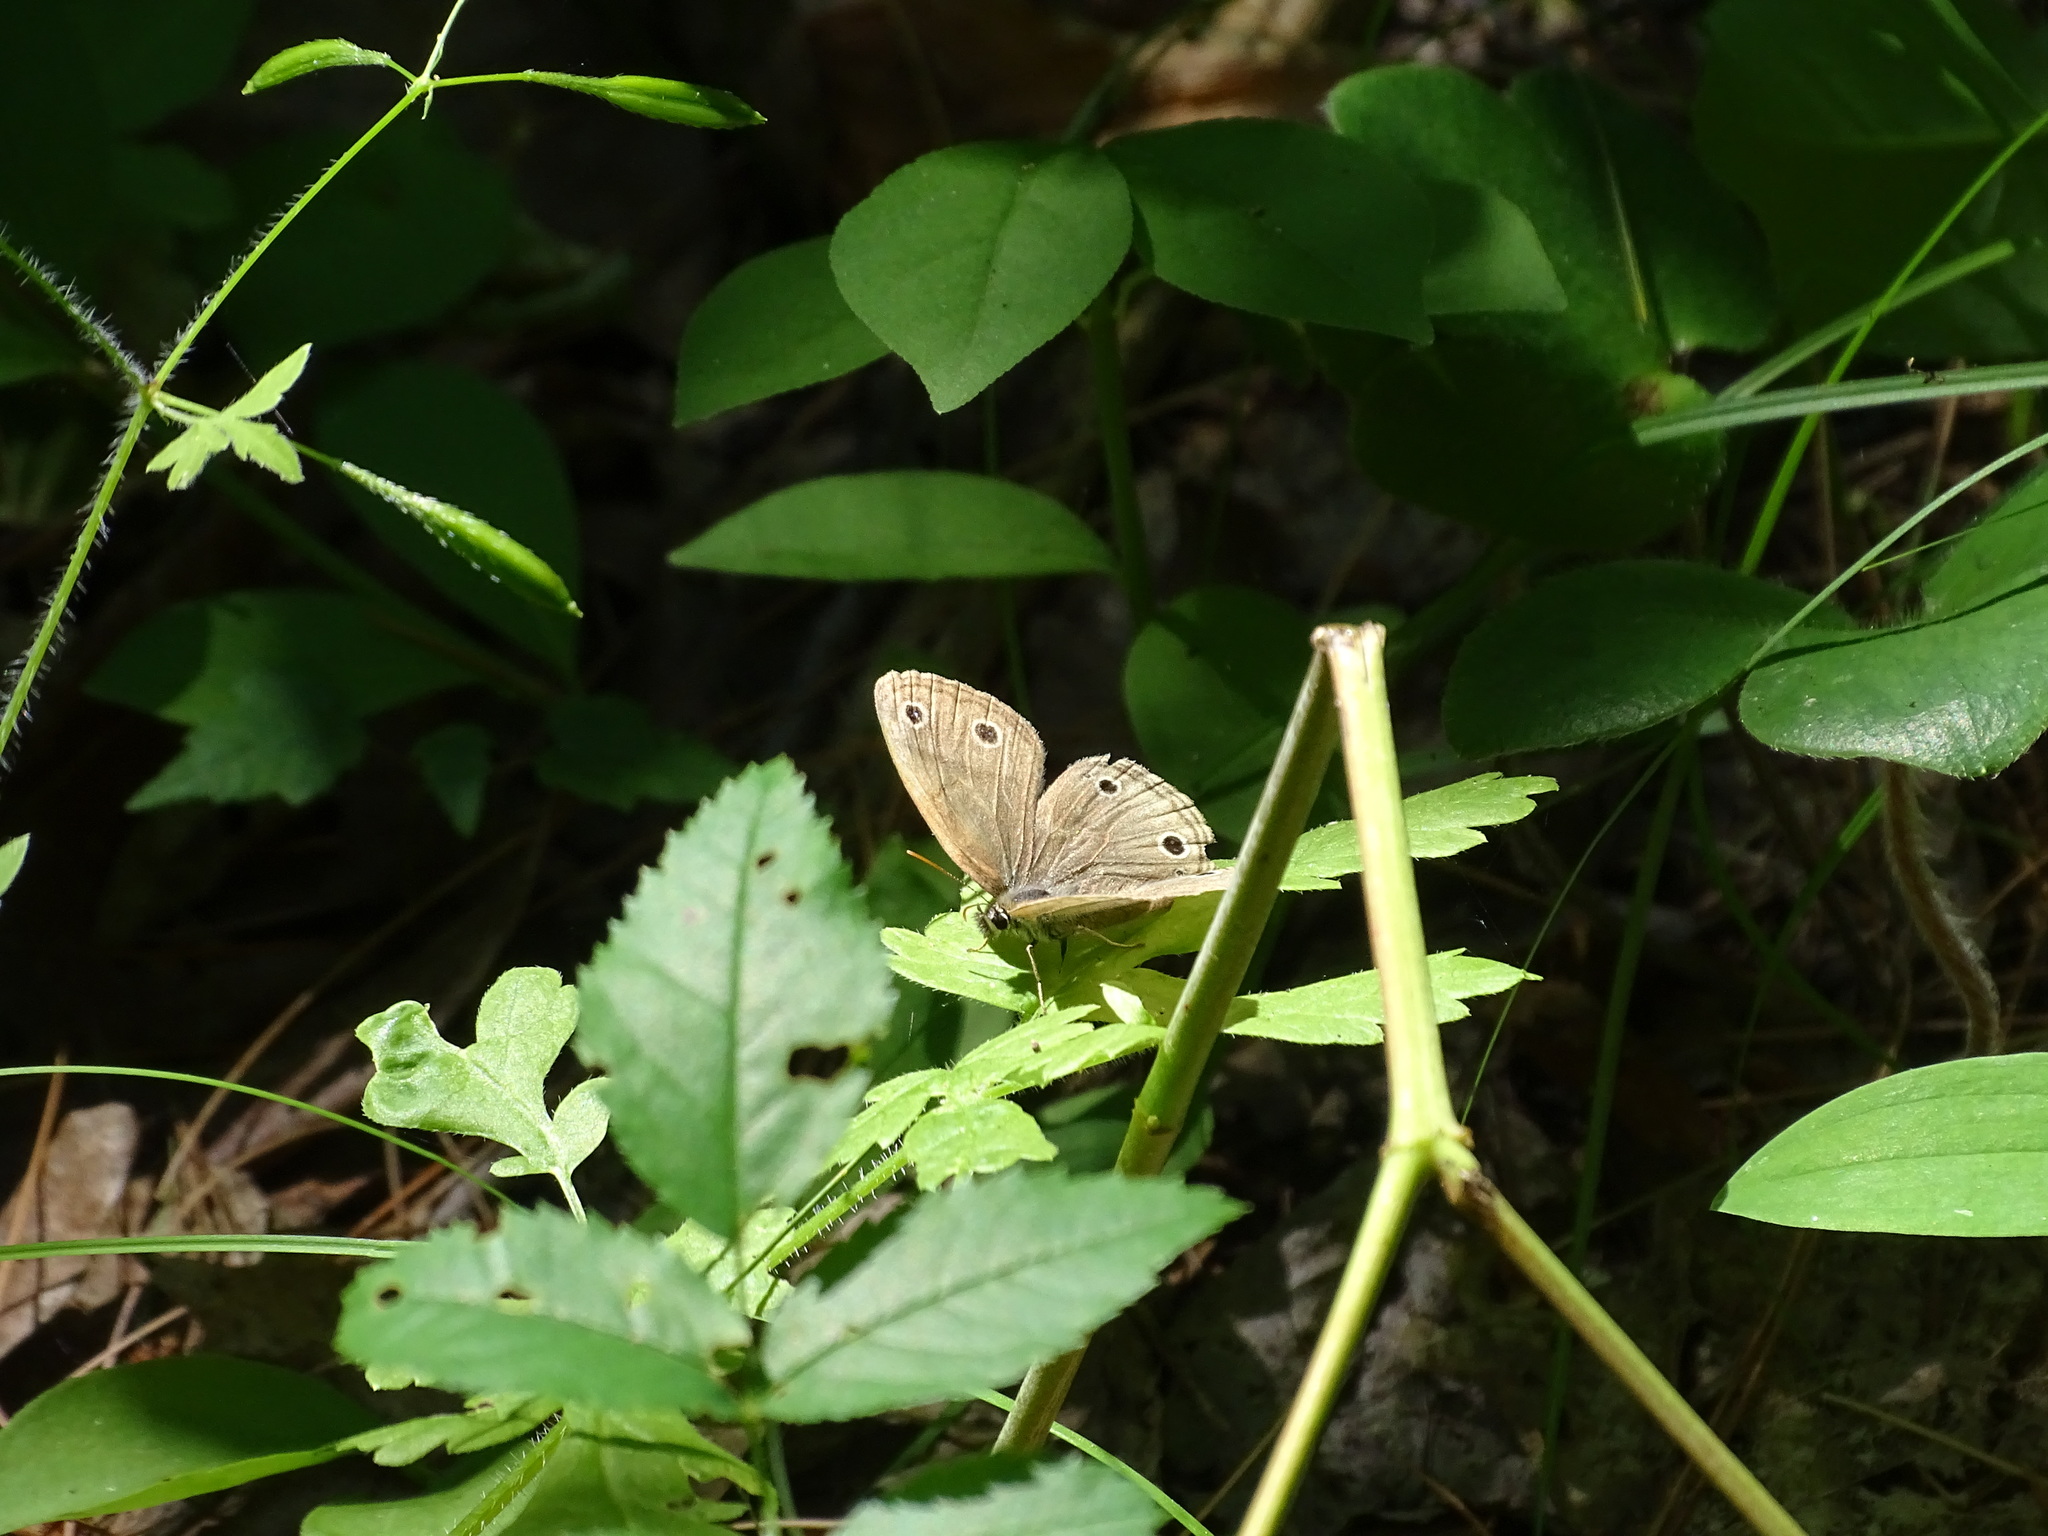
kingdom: Animalia
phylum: Arthropoda
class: Insecta
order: Lepidoptera
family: Nymphalidae
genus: Euptychia
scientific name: Euptychia cymela
